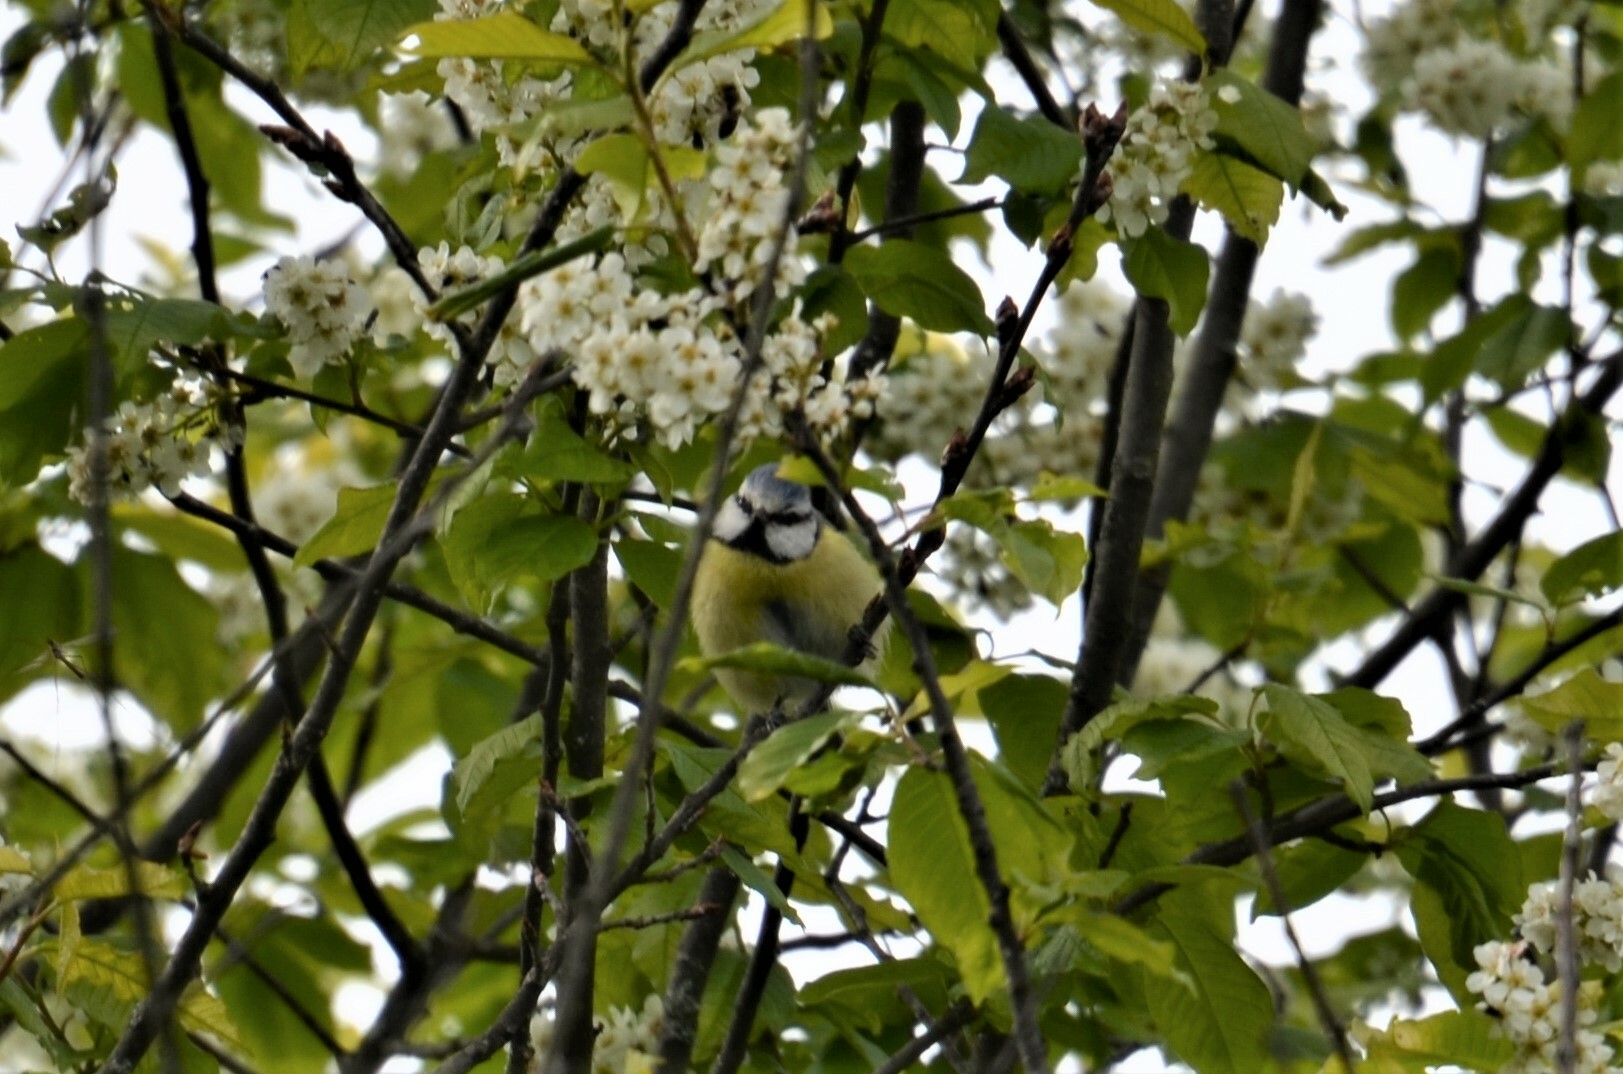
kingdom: Animalia
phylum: Chordata
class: Aves
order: Passeriformes
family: Paridae
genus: Cyanistes
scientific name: Cyanistes caeruleus
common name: Eurasian blue tit
